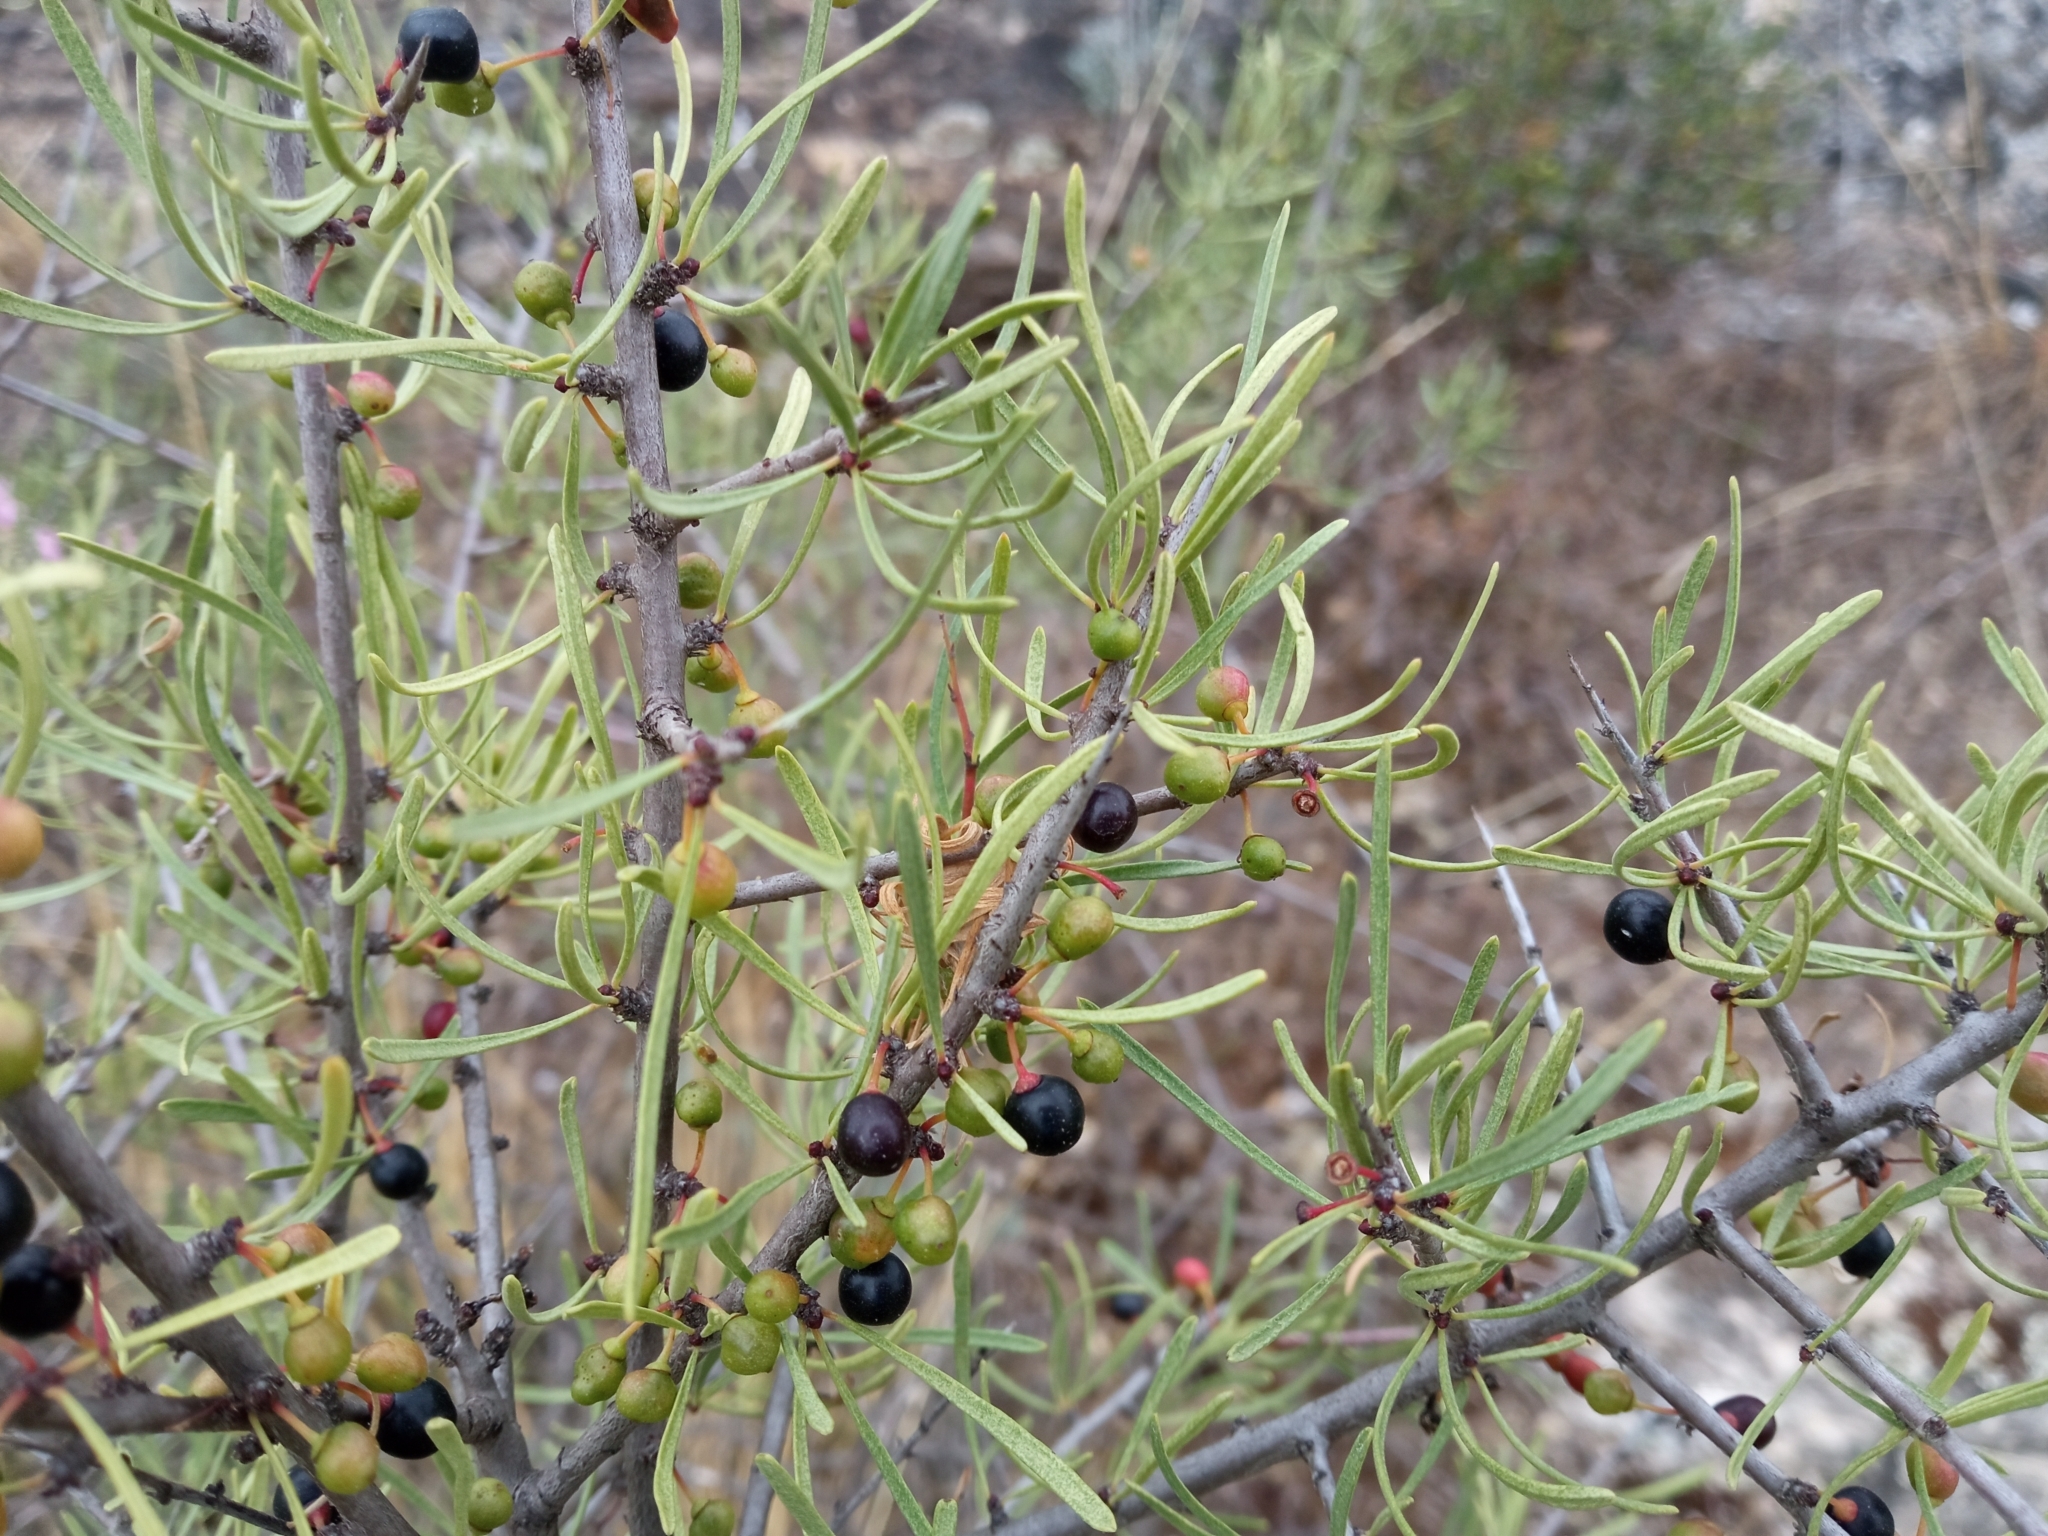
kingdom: Plantae
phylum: Tracheophyta
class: Magnoliopsida
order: Rosales
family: Rhamnaceae
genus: Rhamnus
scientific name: Rhamnus lycioides
